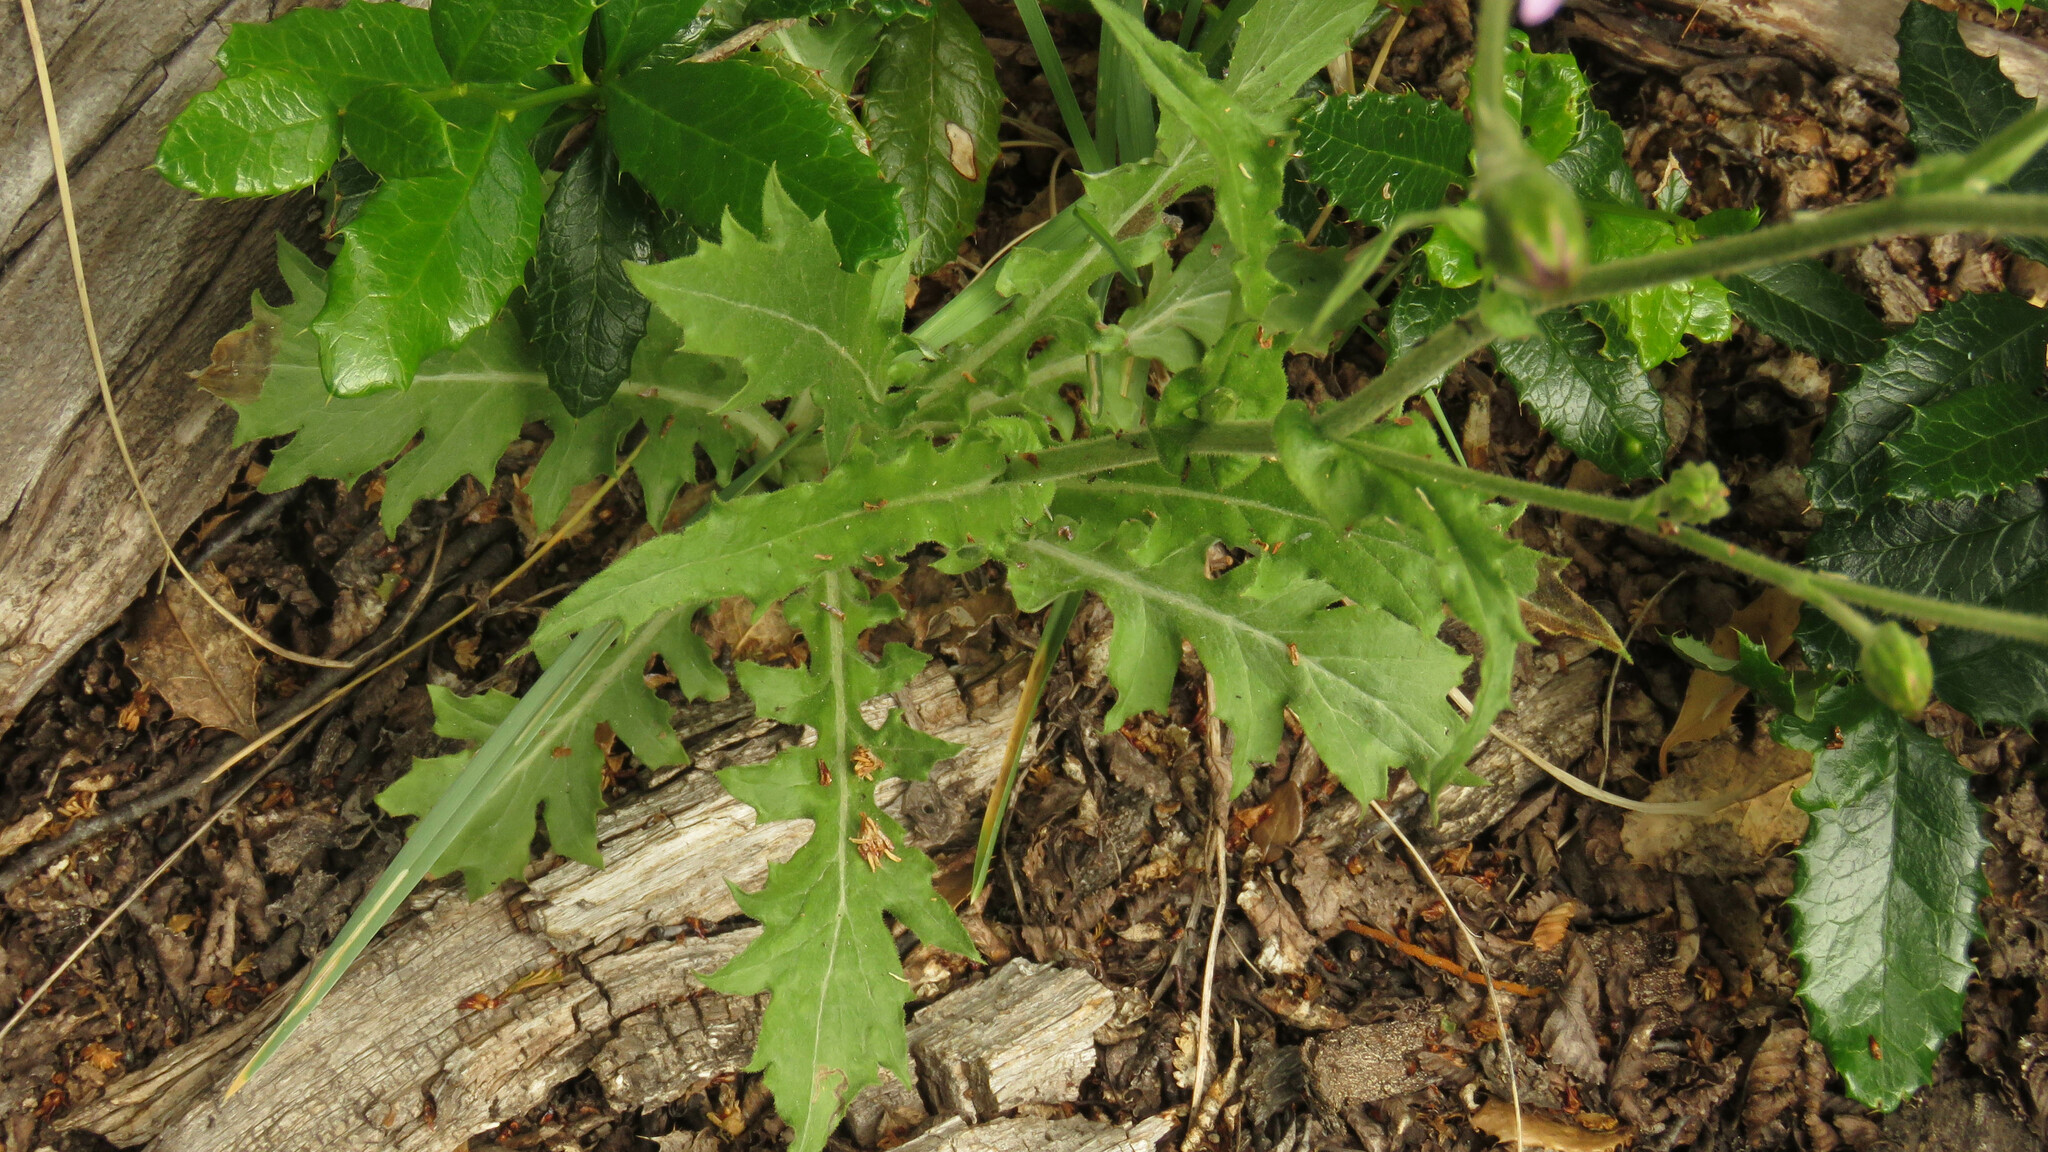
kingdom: Plantae
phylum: Tracheophyta
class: Magnoliopsida
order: Asterales
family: Asteraceae
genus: Leucheria
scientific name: Leucheria glacialis
